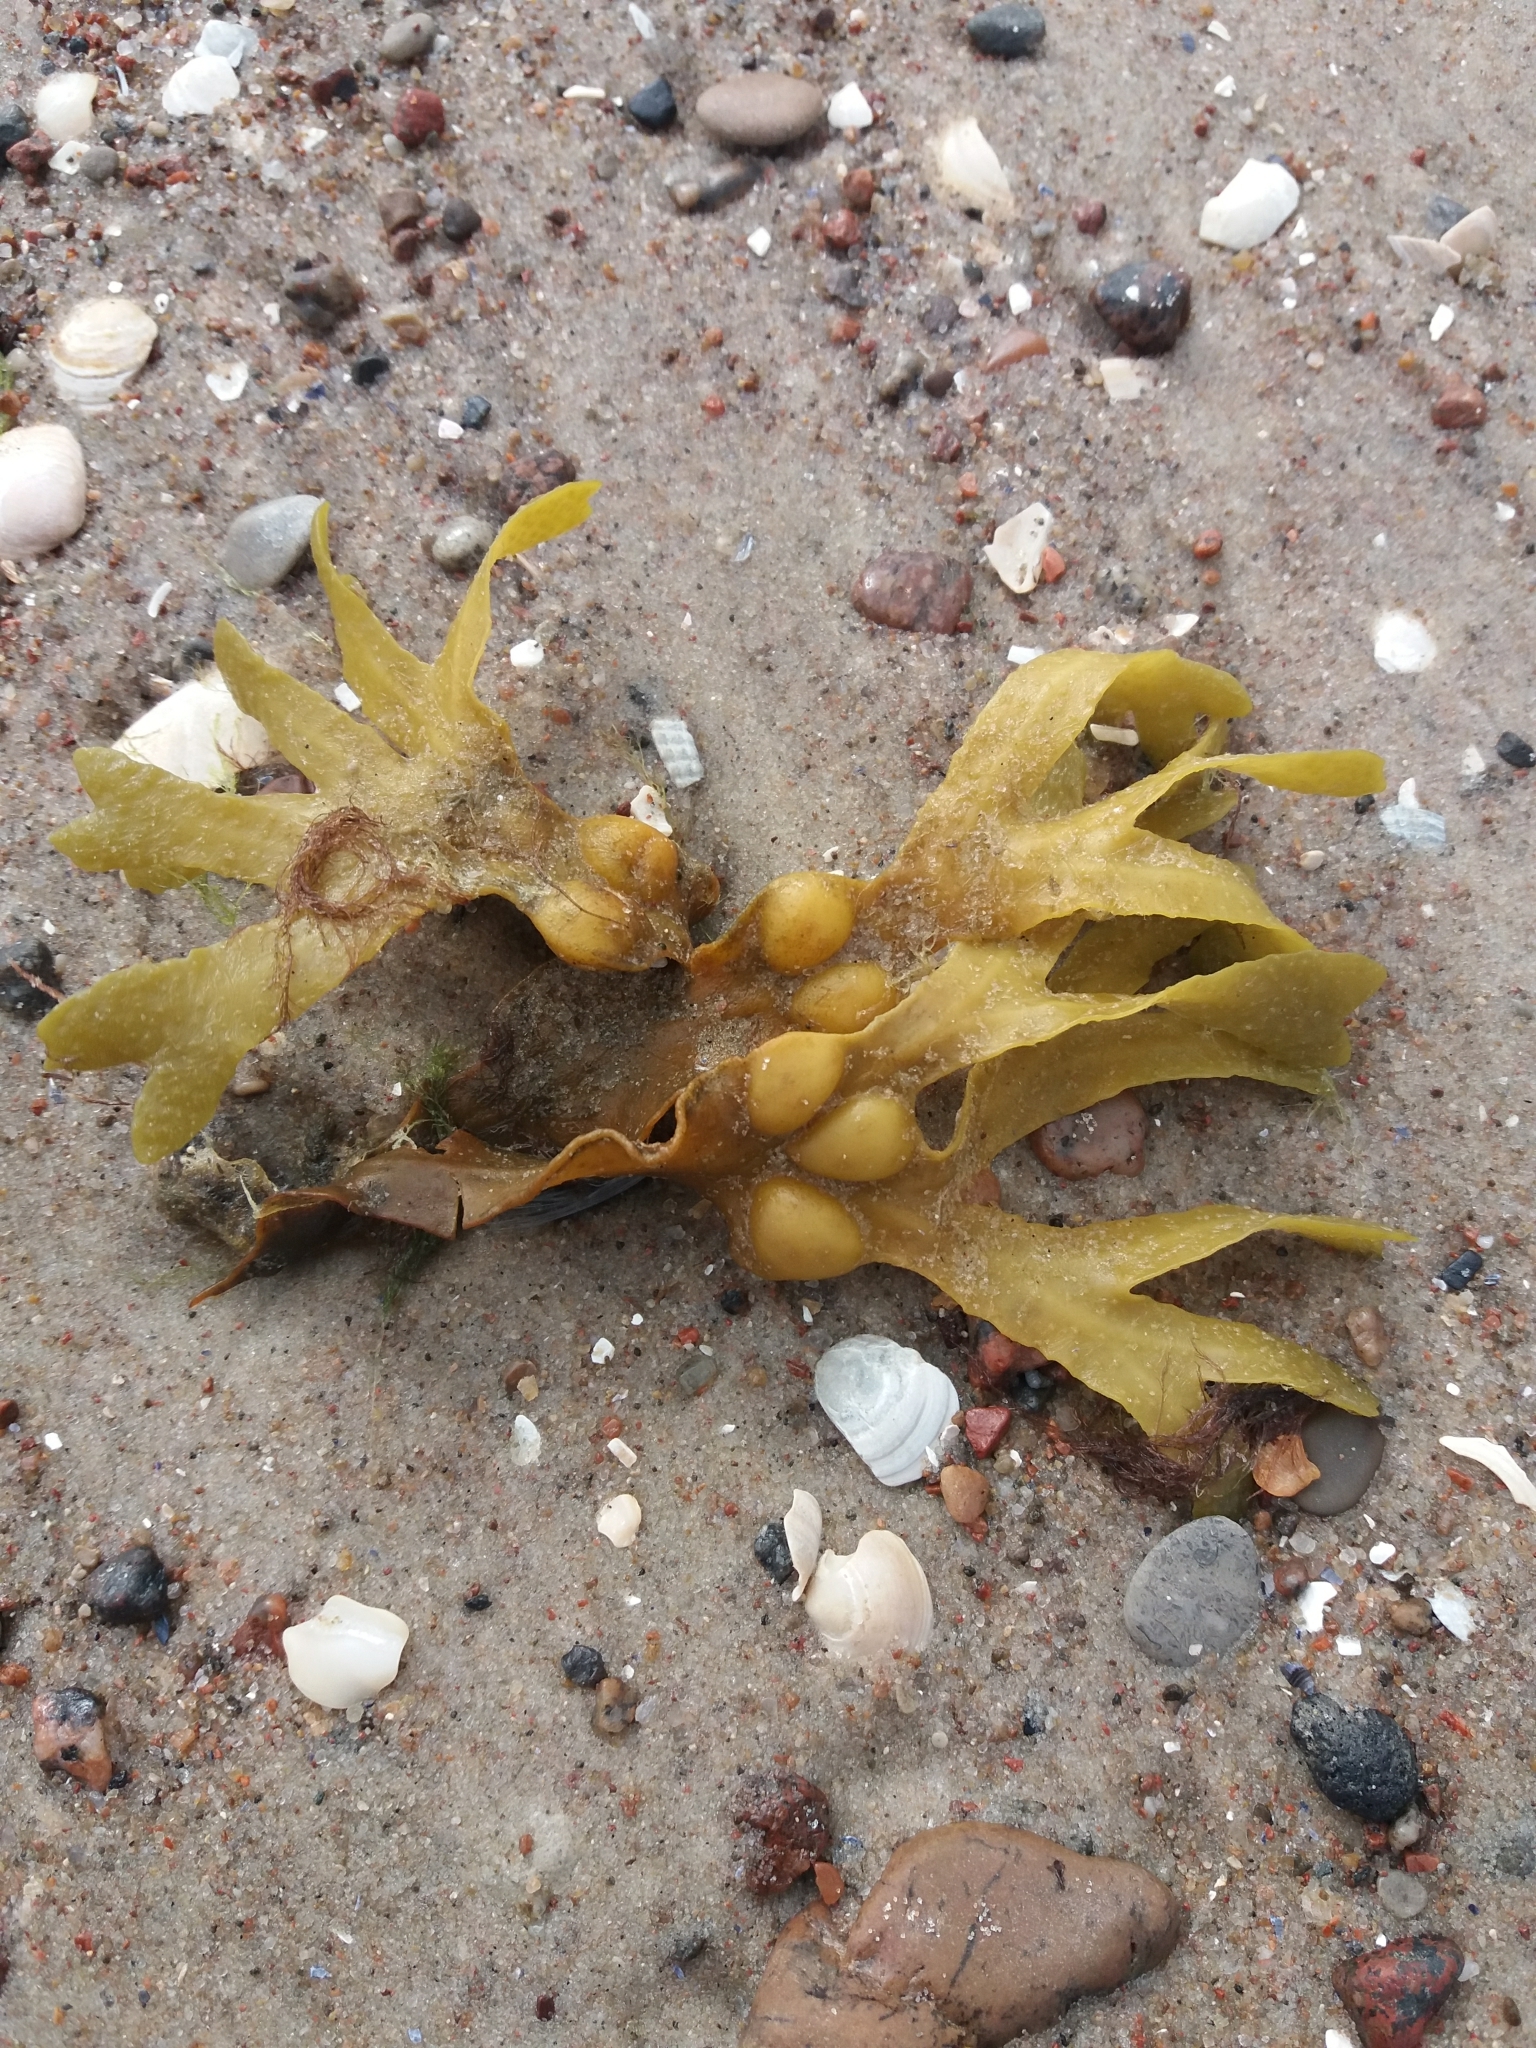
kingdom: Chromista
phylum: Ochrophyta
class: Phaeophyceae
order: Fucales
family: Fucaceae
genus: Fucus
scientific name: Fucus vesiculosus
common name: Bladder wrack
